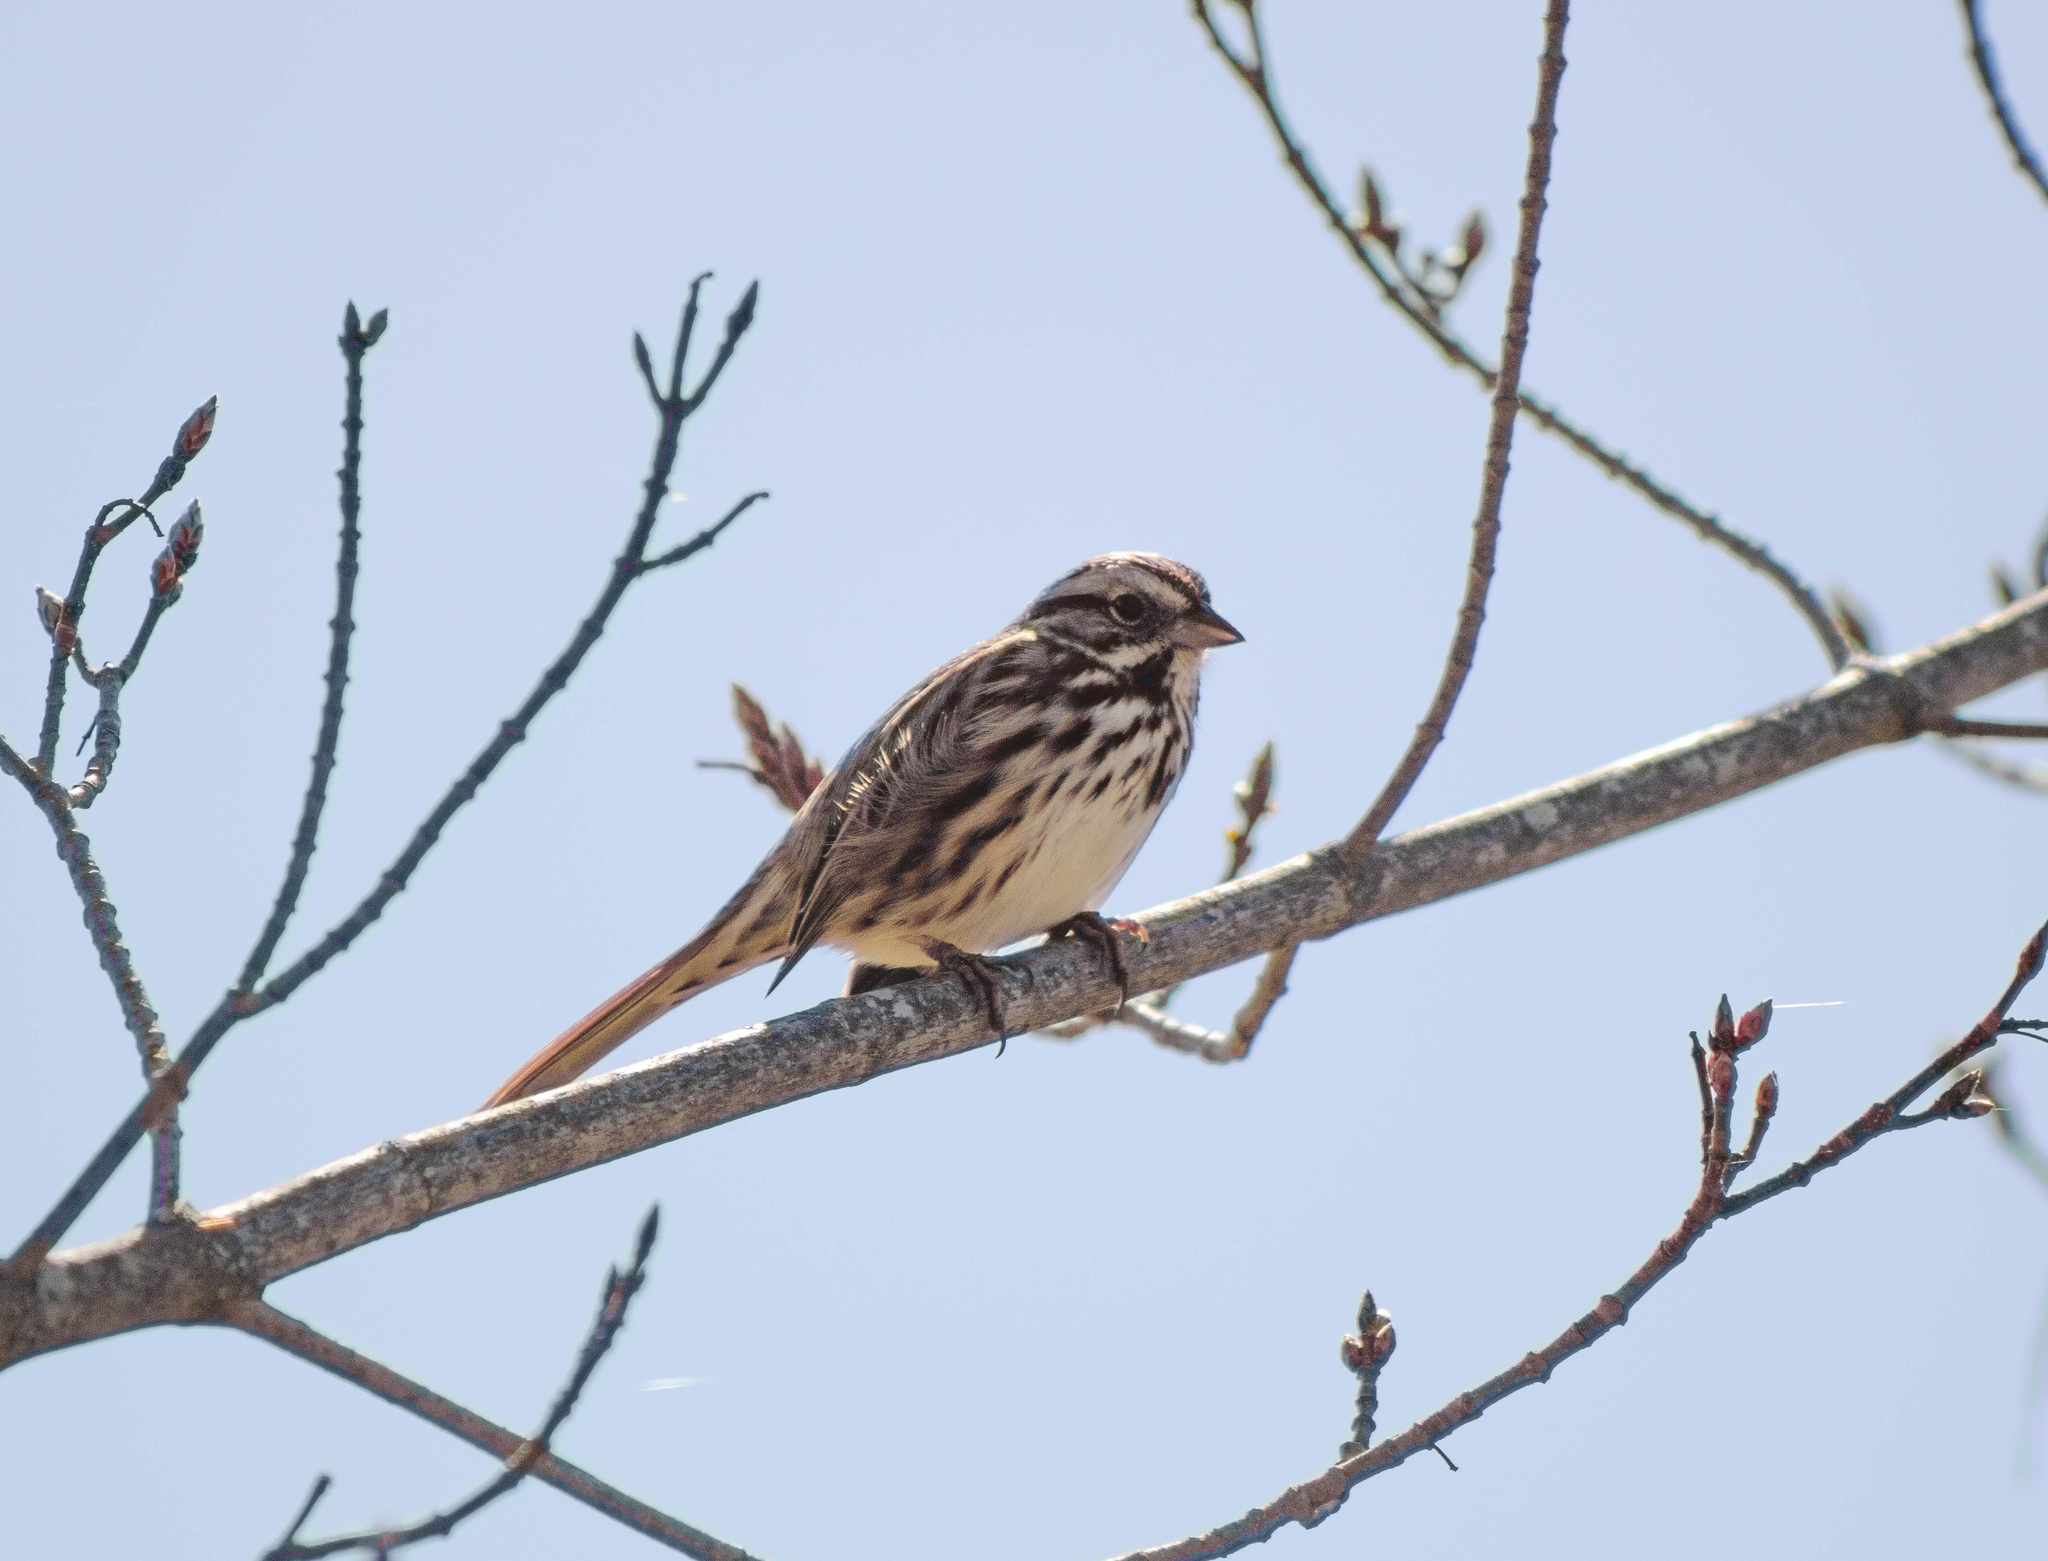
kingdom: Animalia
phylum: Chordata
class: Aves
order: Passeriformes
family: Passerellidae
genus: Melospiza
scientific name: Melospiza melodia
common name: Song sparrow
